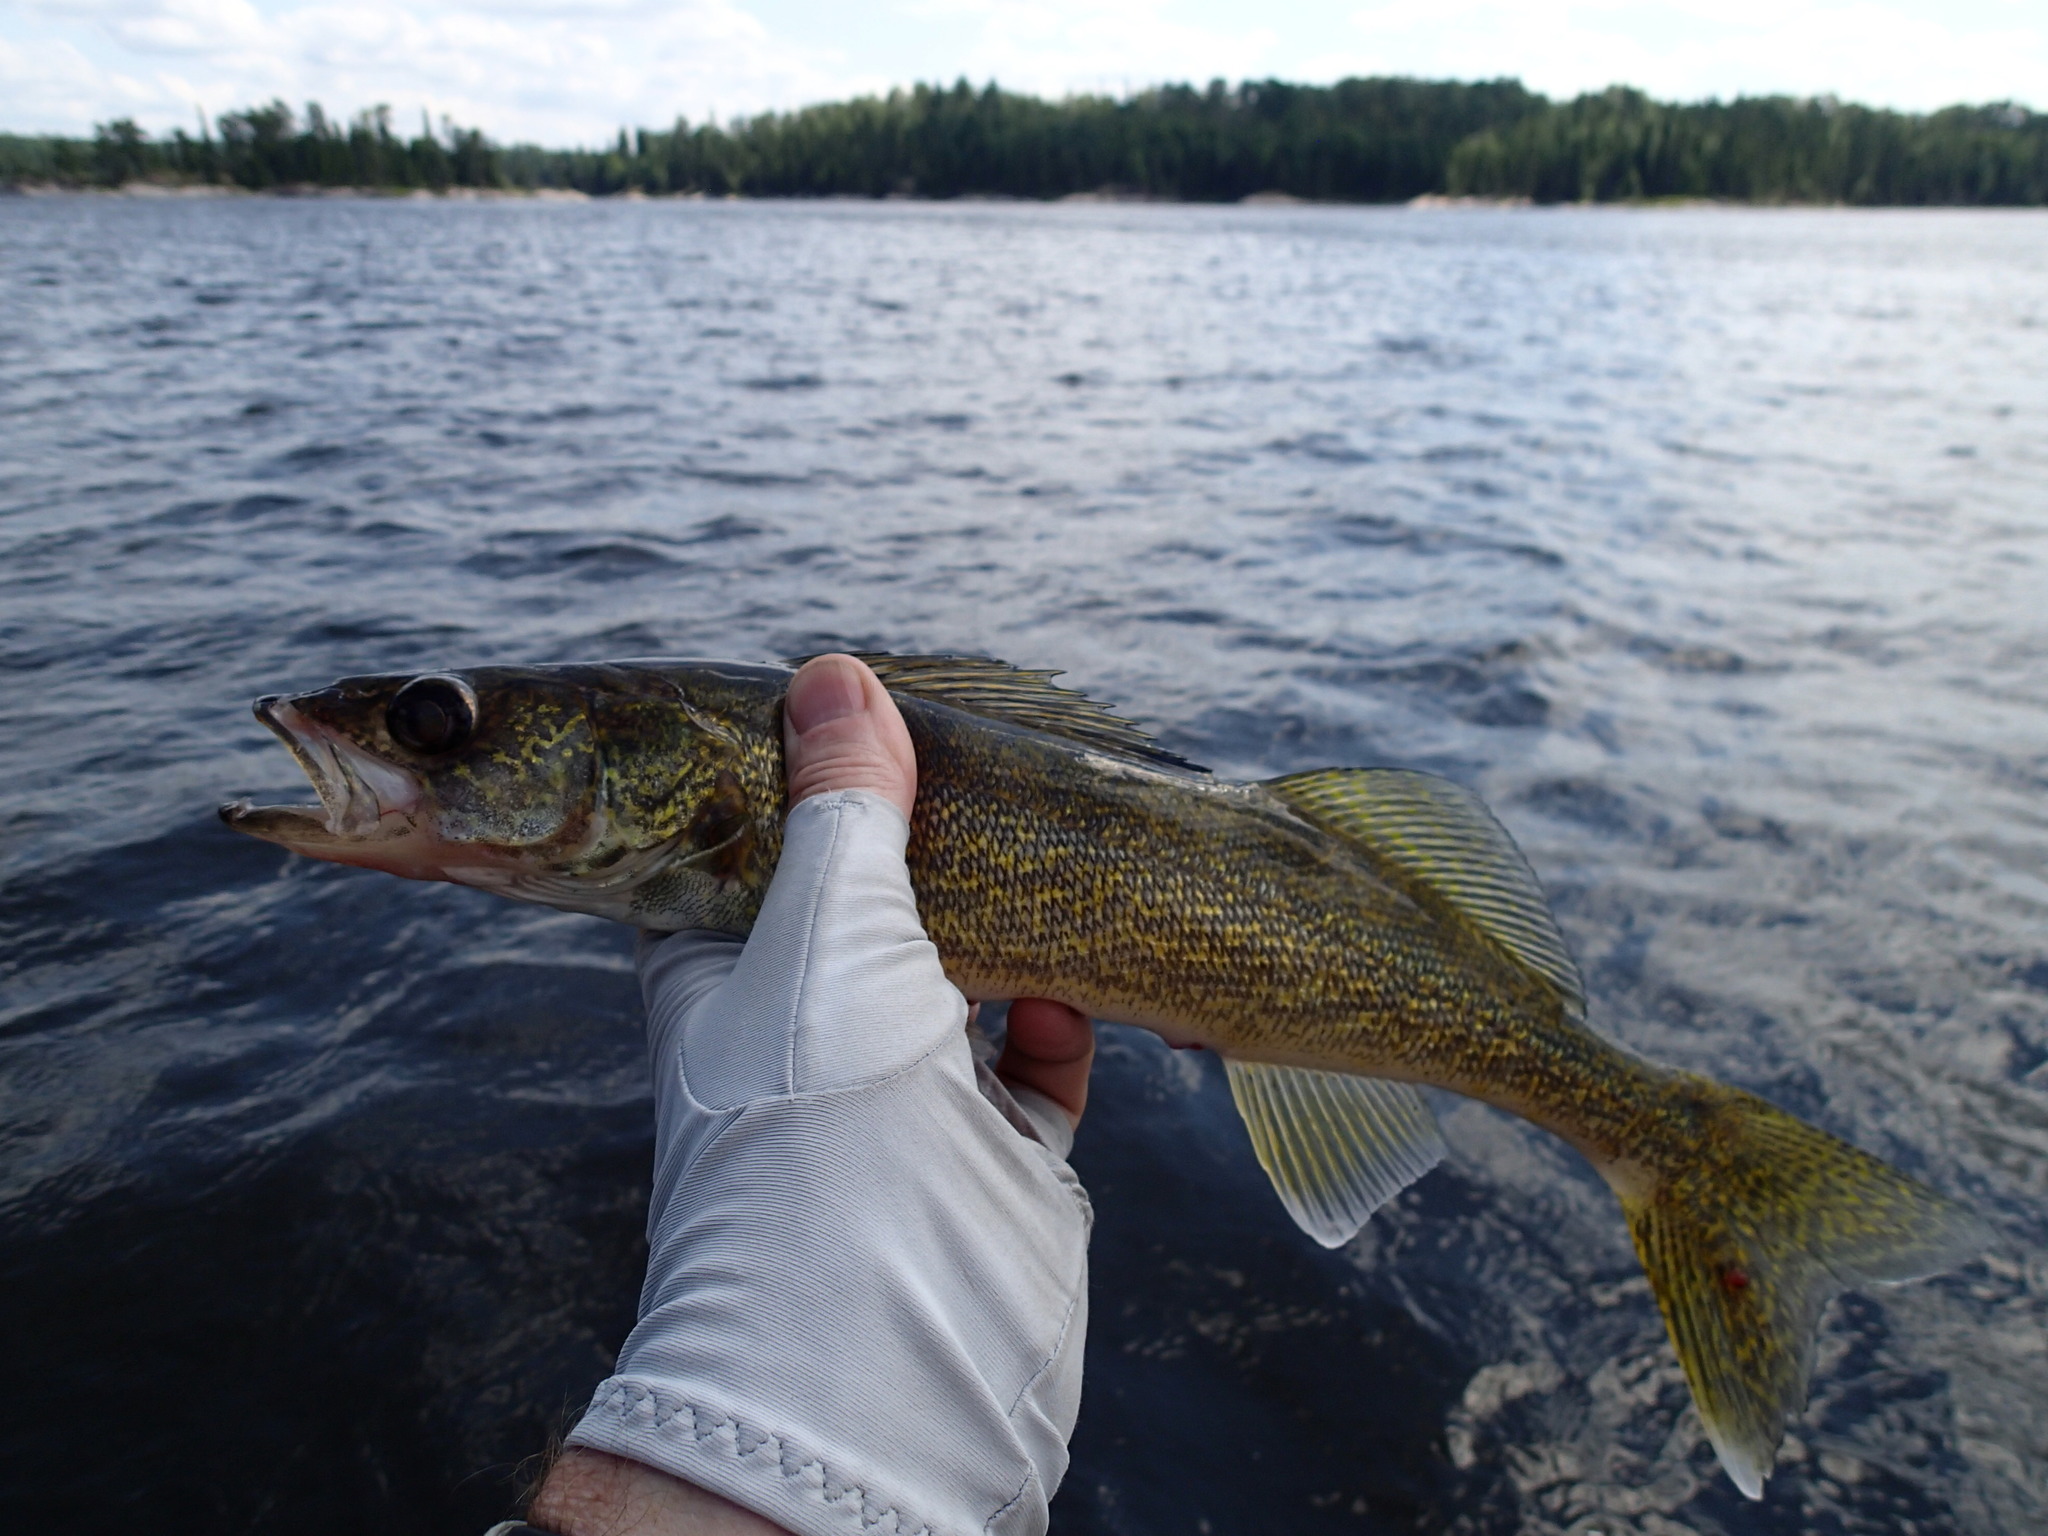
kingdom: Animalia
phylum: Chordata
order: Perciformes
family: Percidae
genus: Sander
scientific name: Sander vitreus
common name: Walleye
